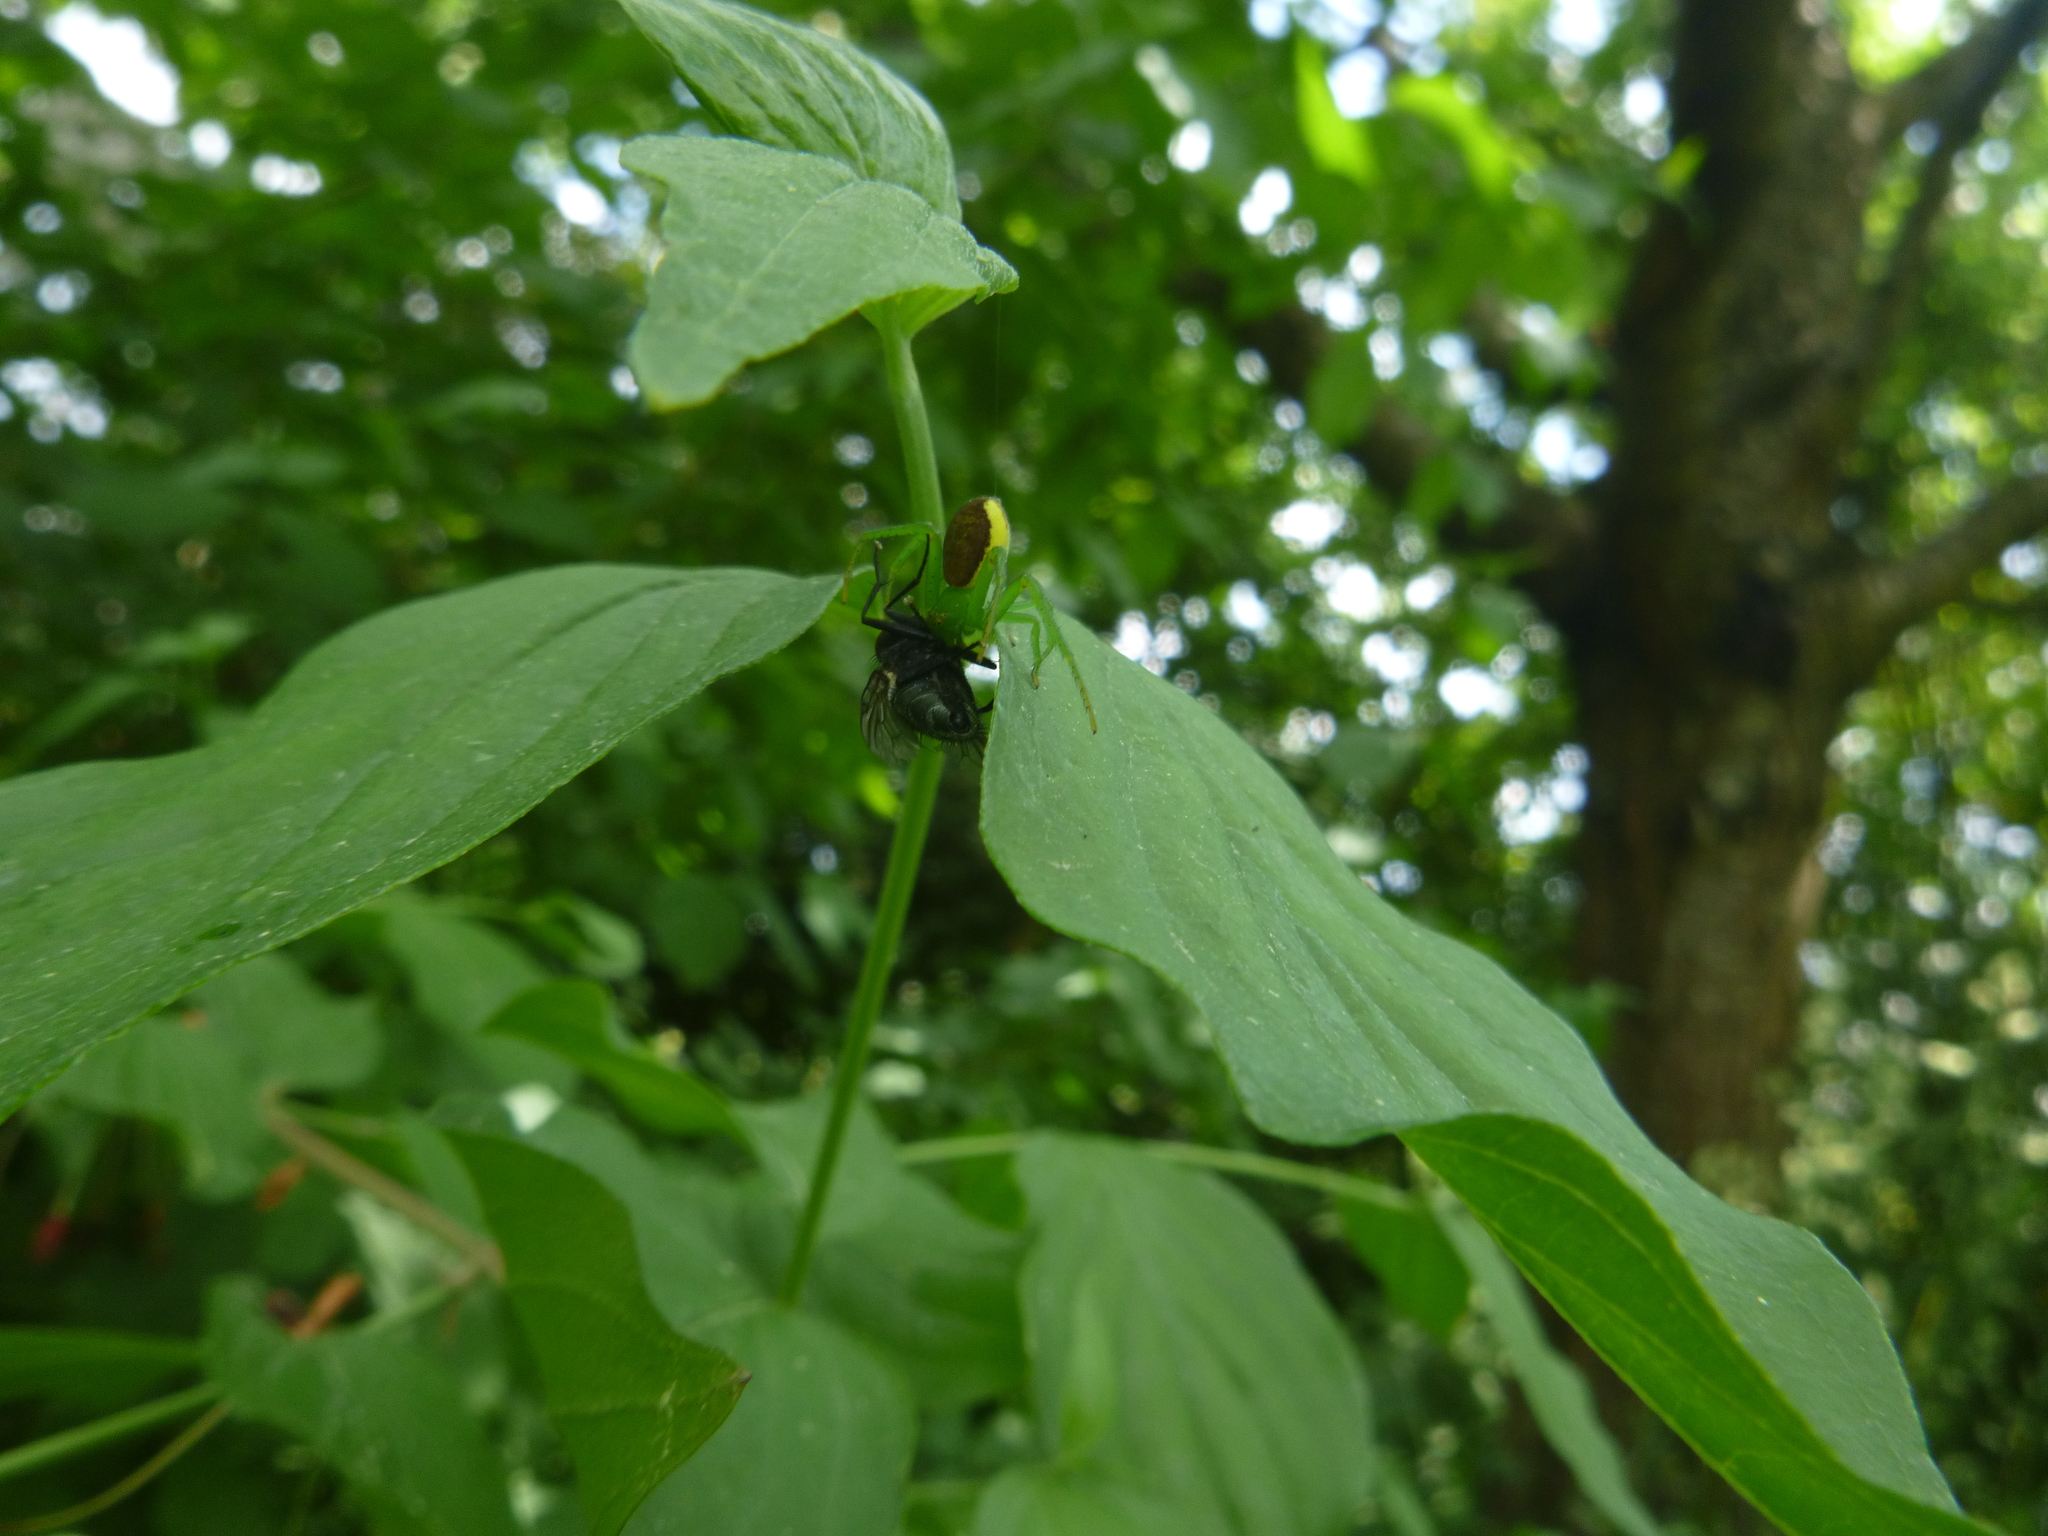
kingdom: Animalia
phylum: Arthropoda
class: Arachnida
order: Araneae
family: Thomisidae
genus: Diaea
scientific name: Diaea dorsata
